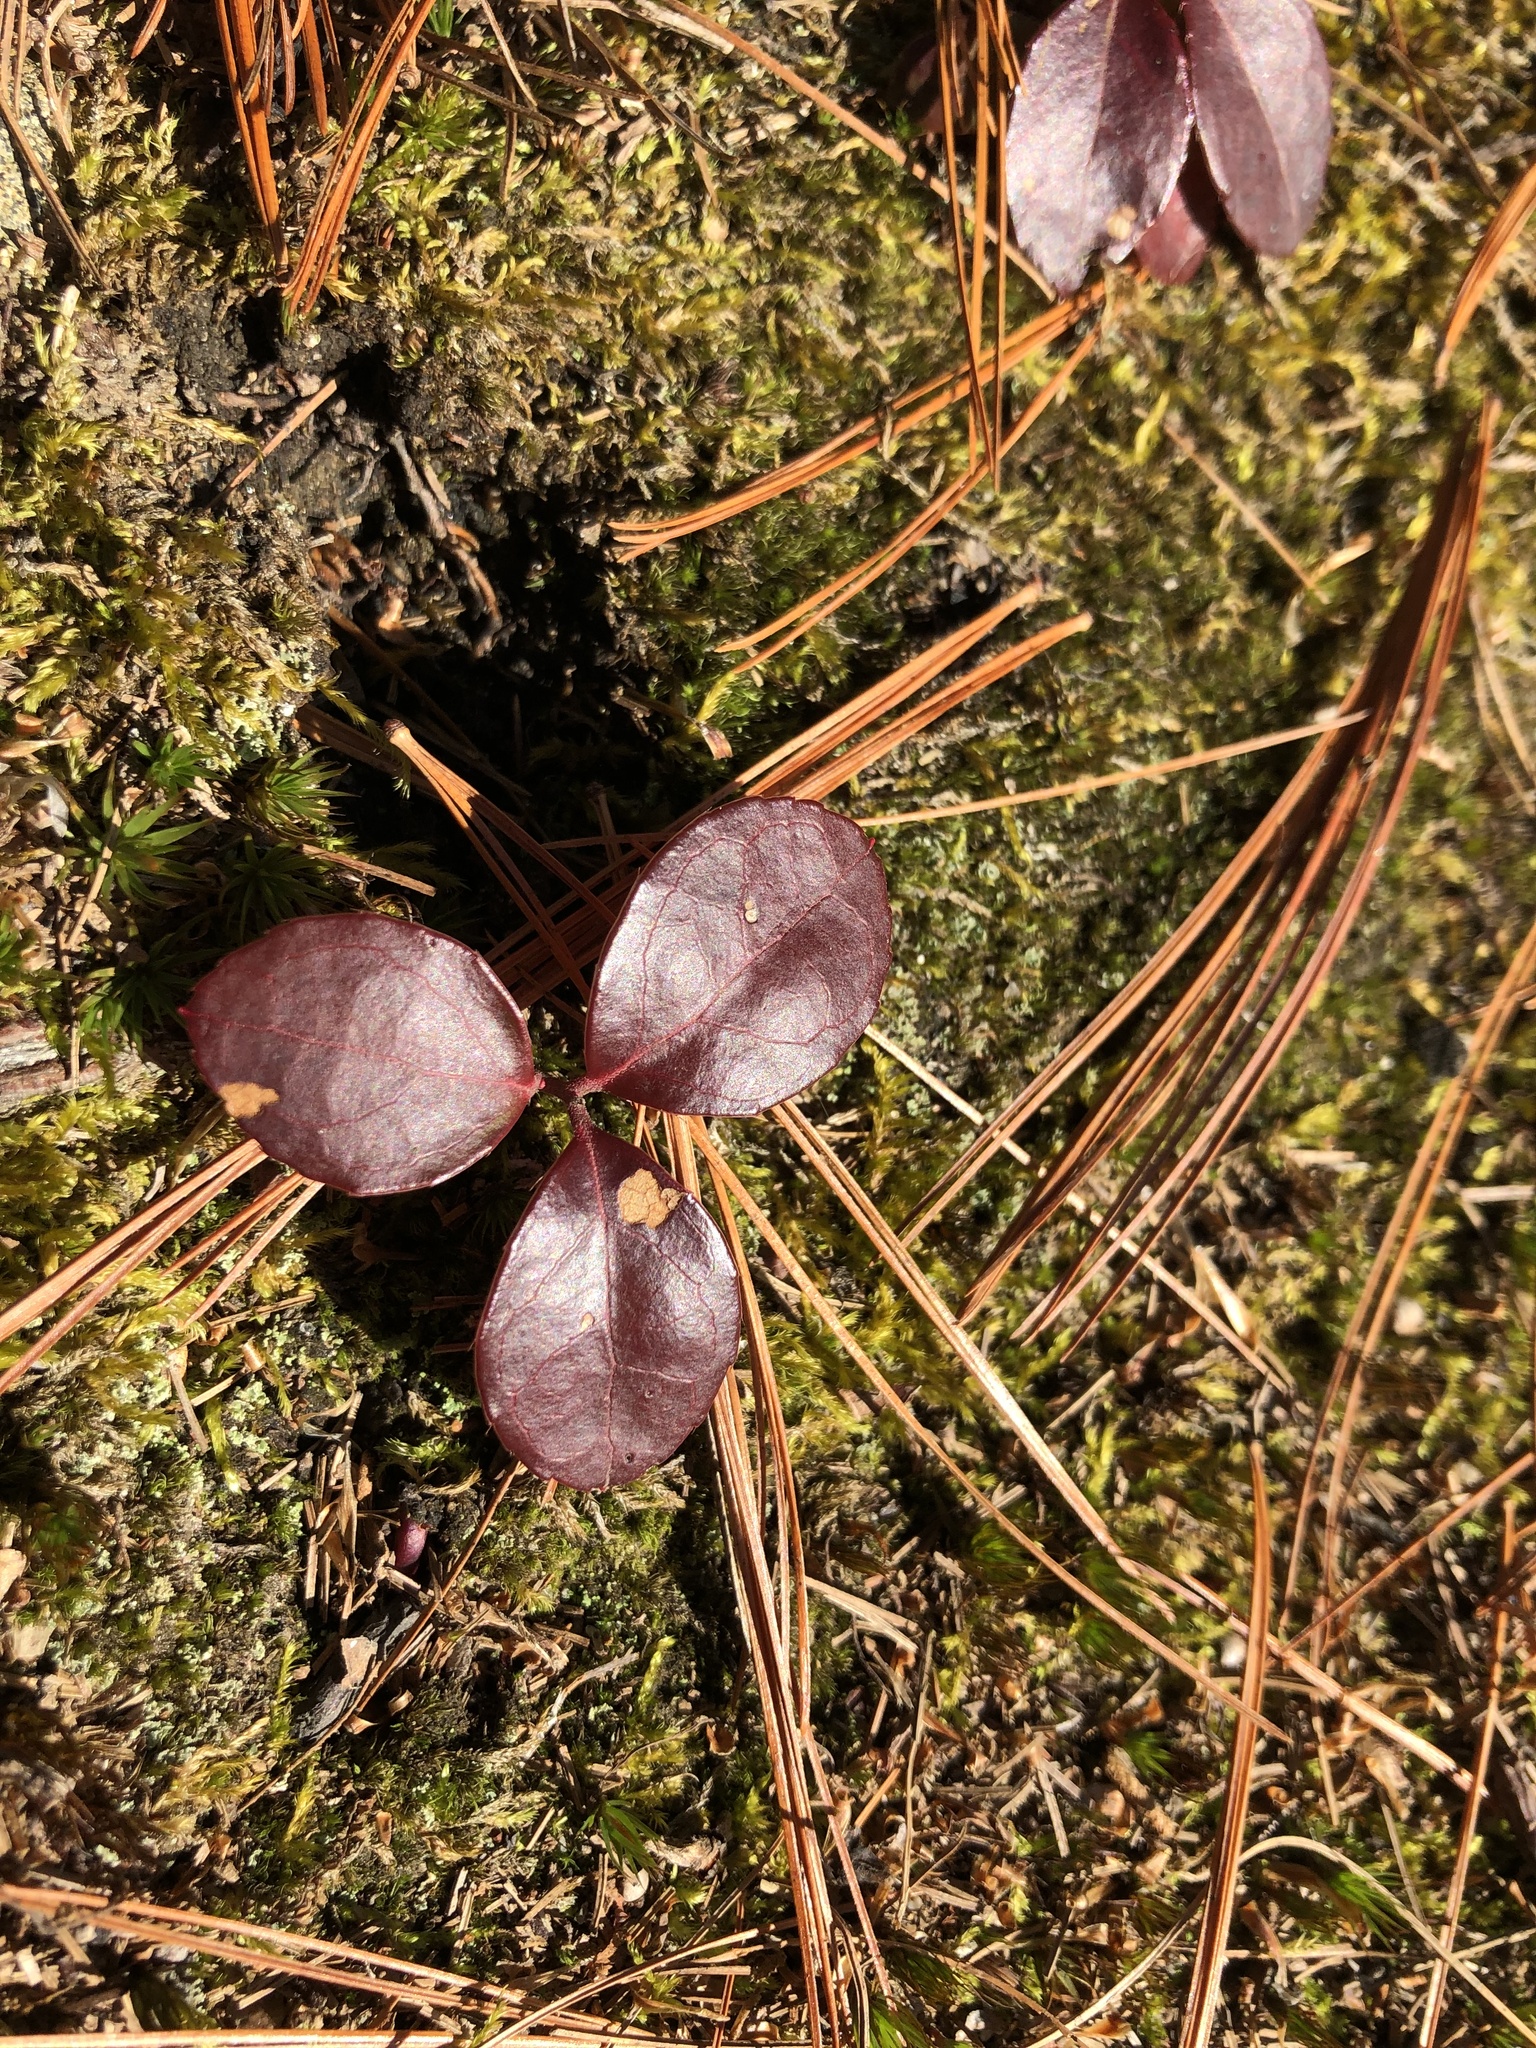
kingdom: Plantae
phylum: Tracheophyta
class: Magnoliopsida
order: Ericales
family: Ericaceae
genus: Gaultheria
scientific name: Gaultheria procumbens
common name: Checkerberry
